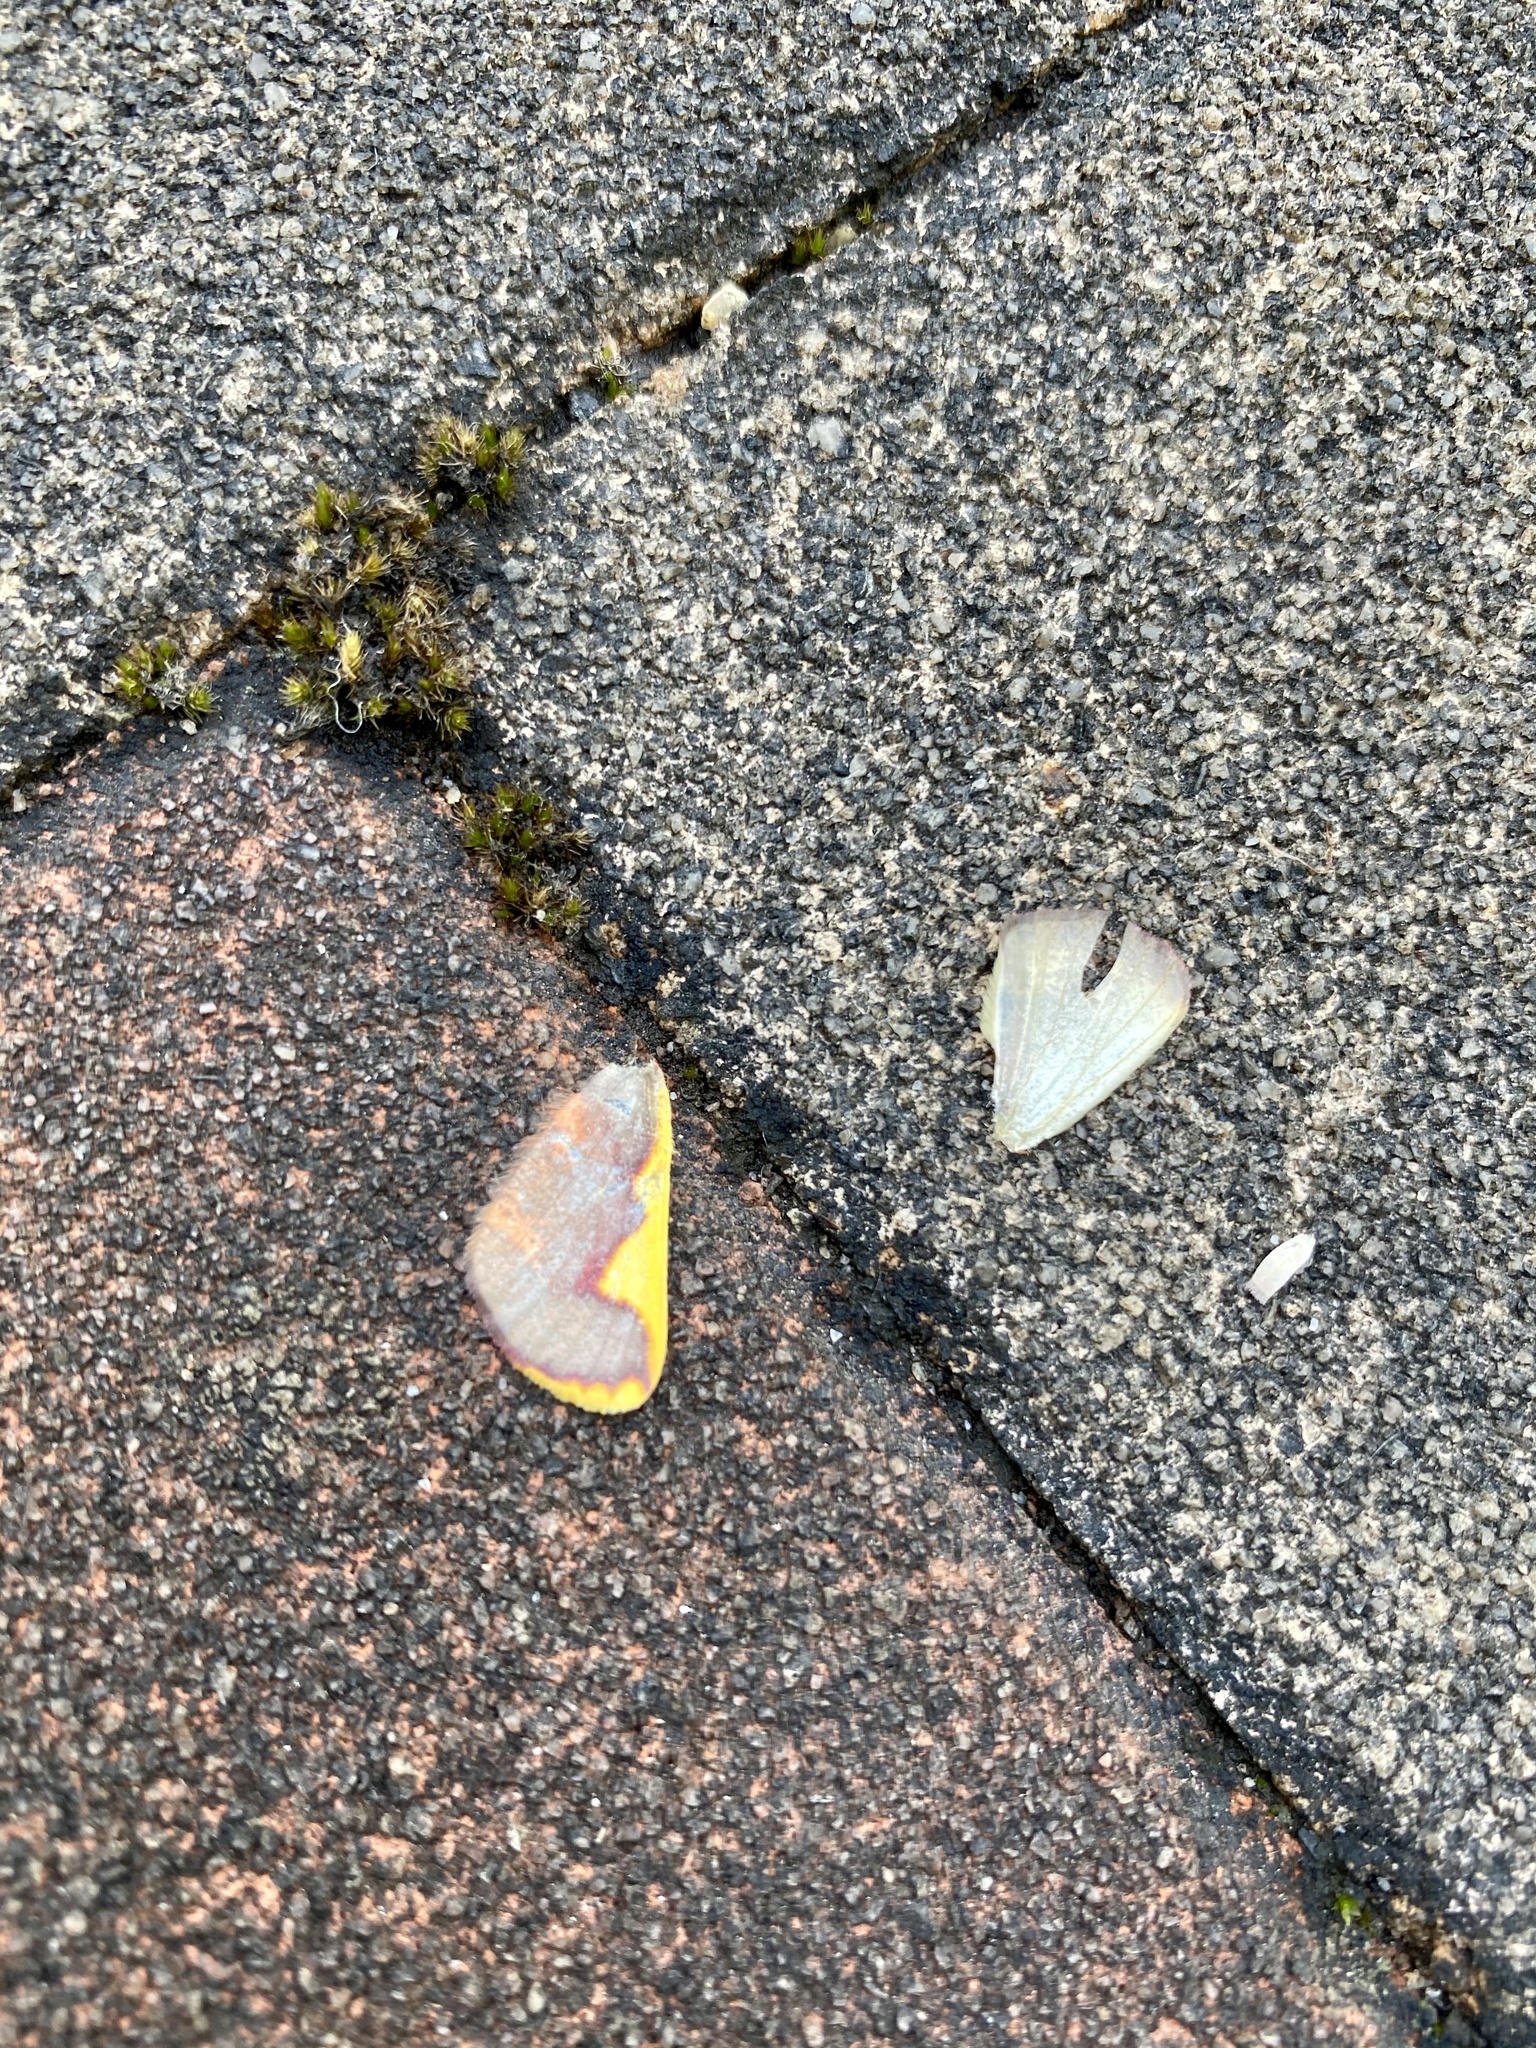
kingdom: Animalia
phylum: Arthropoda
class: Insecta
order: Lepidoptera
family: Geometridae
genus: Nothomiza
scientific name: Nothomiza formosa
